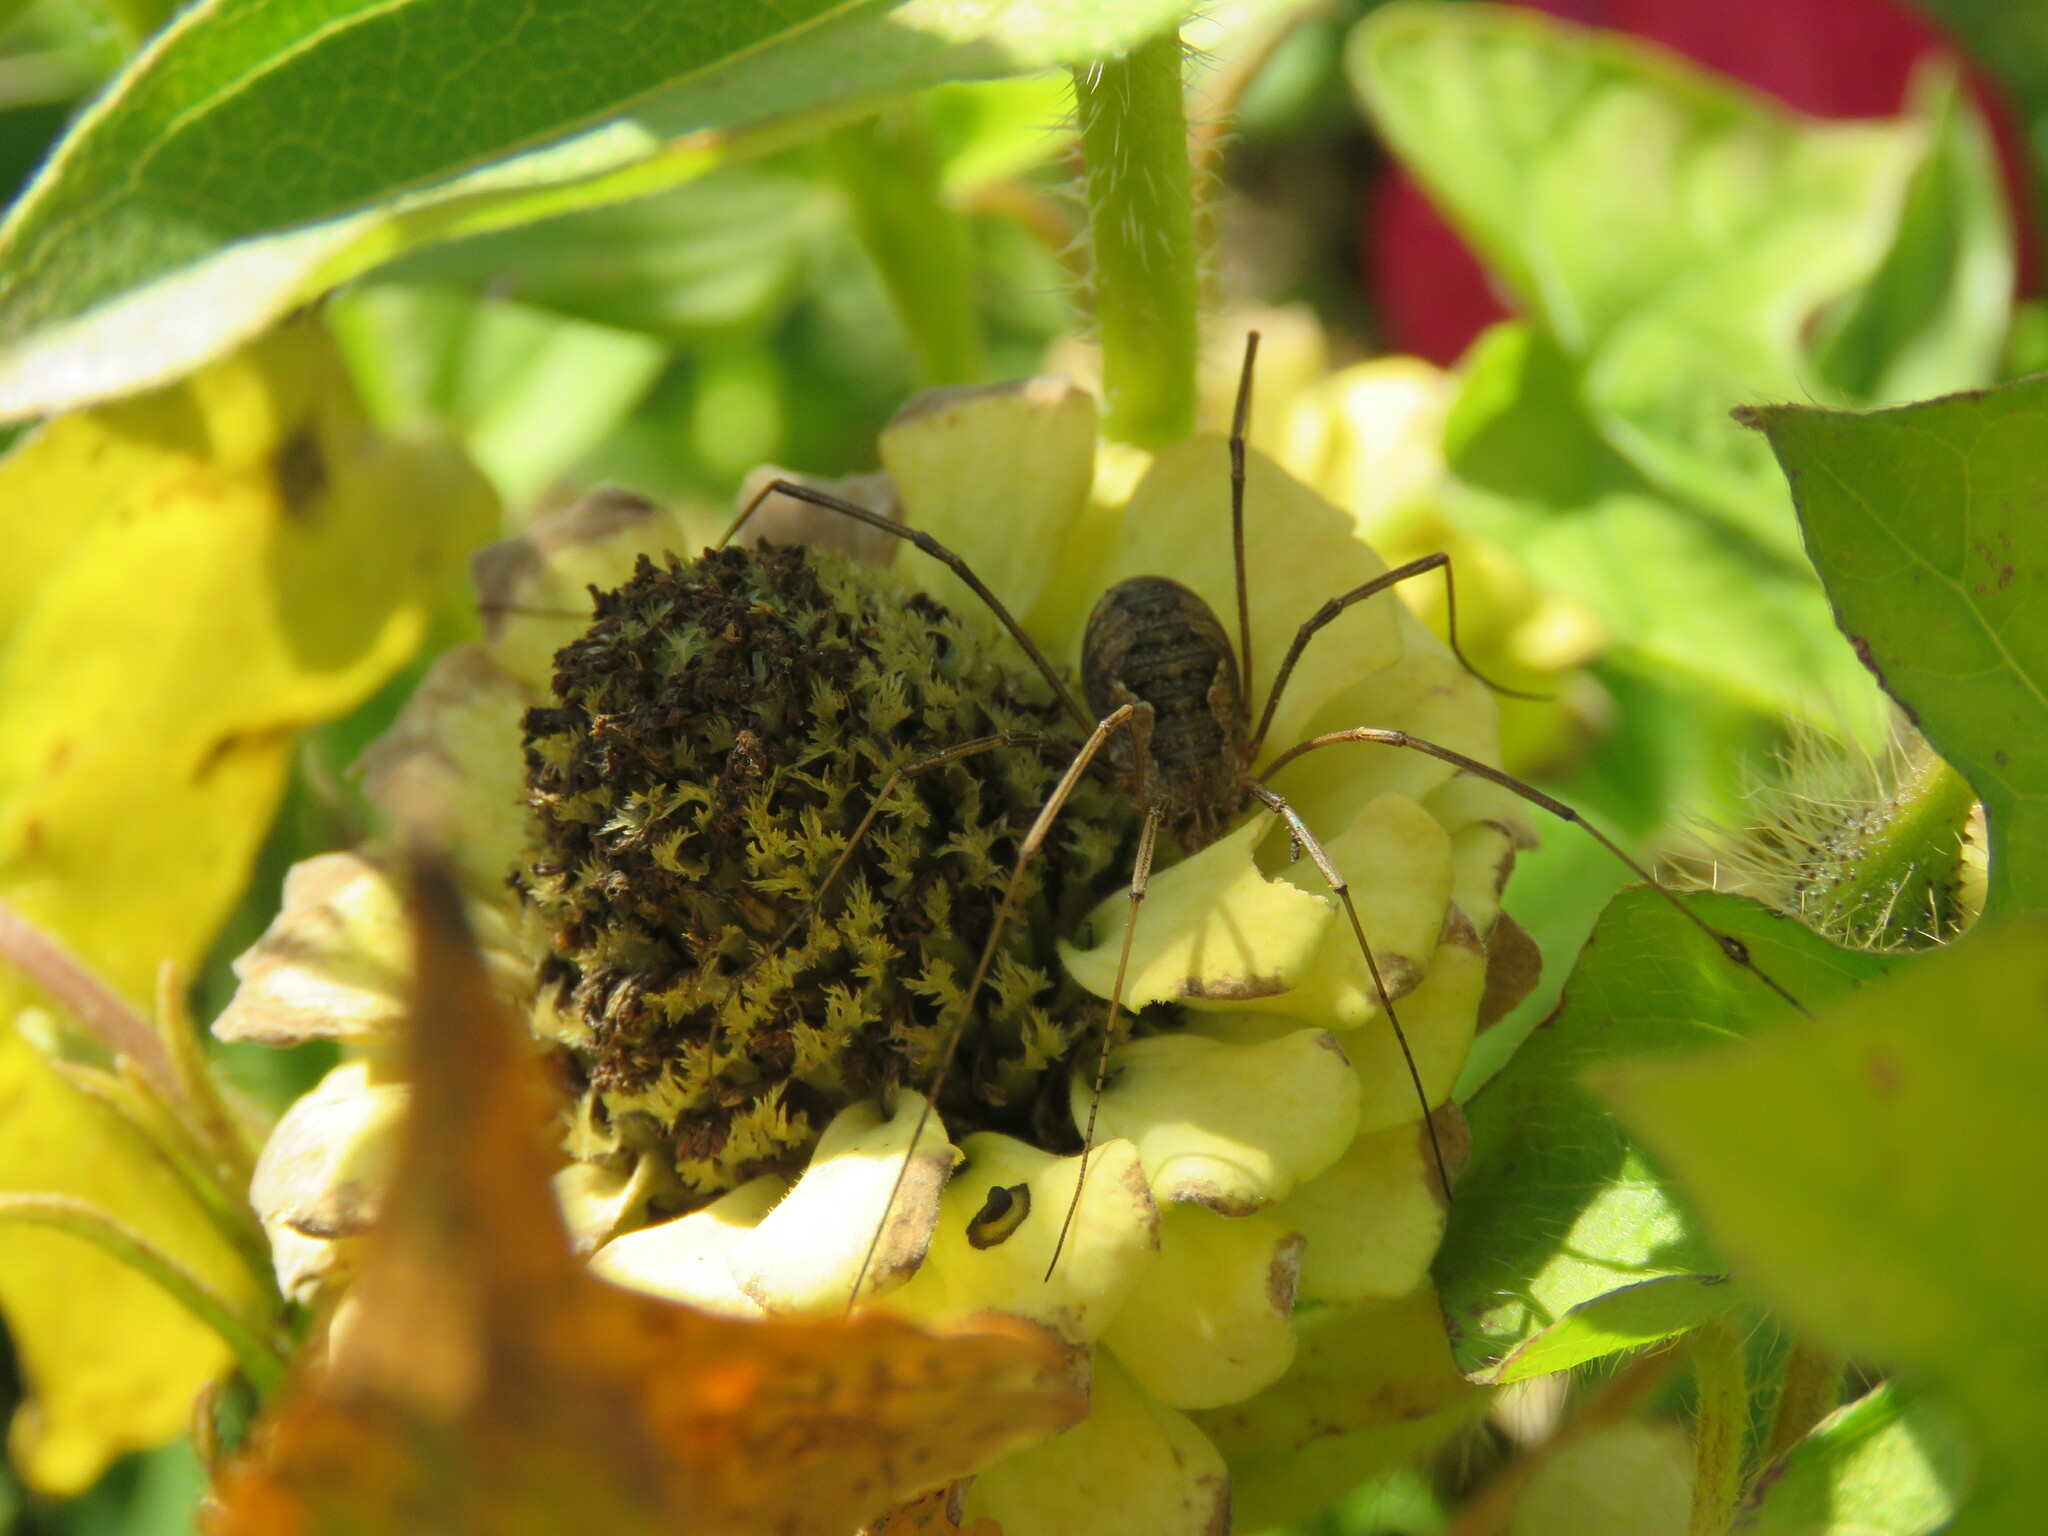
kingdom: Animalia
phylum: Arthropoda
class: Arachnida
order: Opiliones
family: Phalangiidae
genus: Phalangium
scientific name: Phalangium opilio
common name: Daddy longleg
